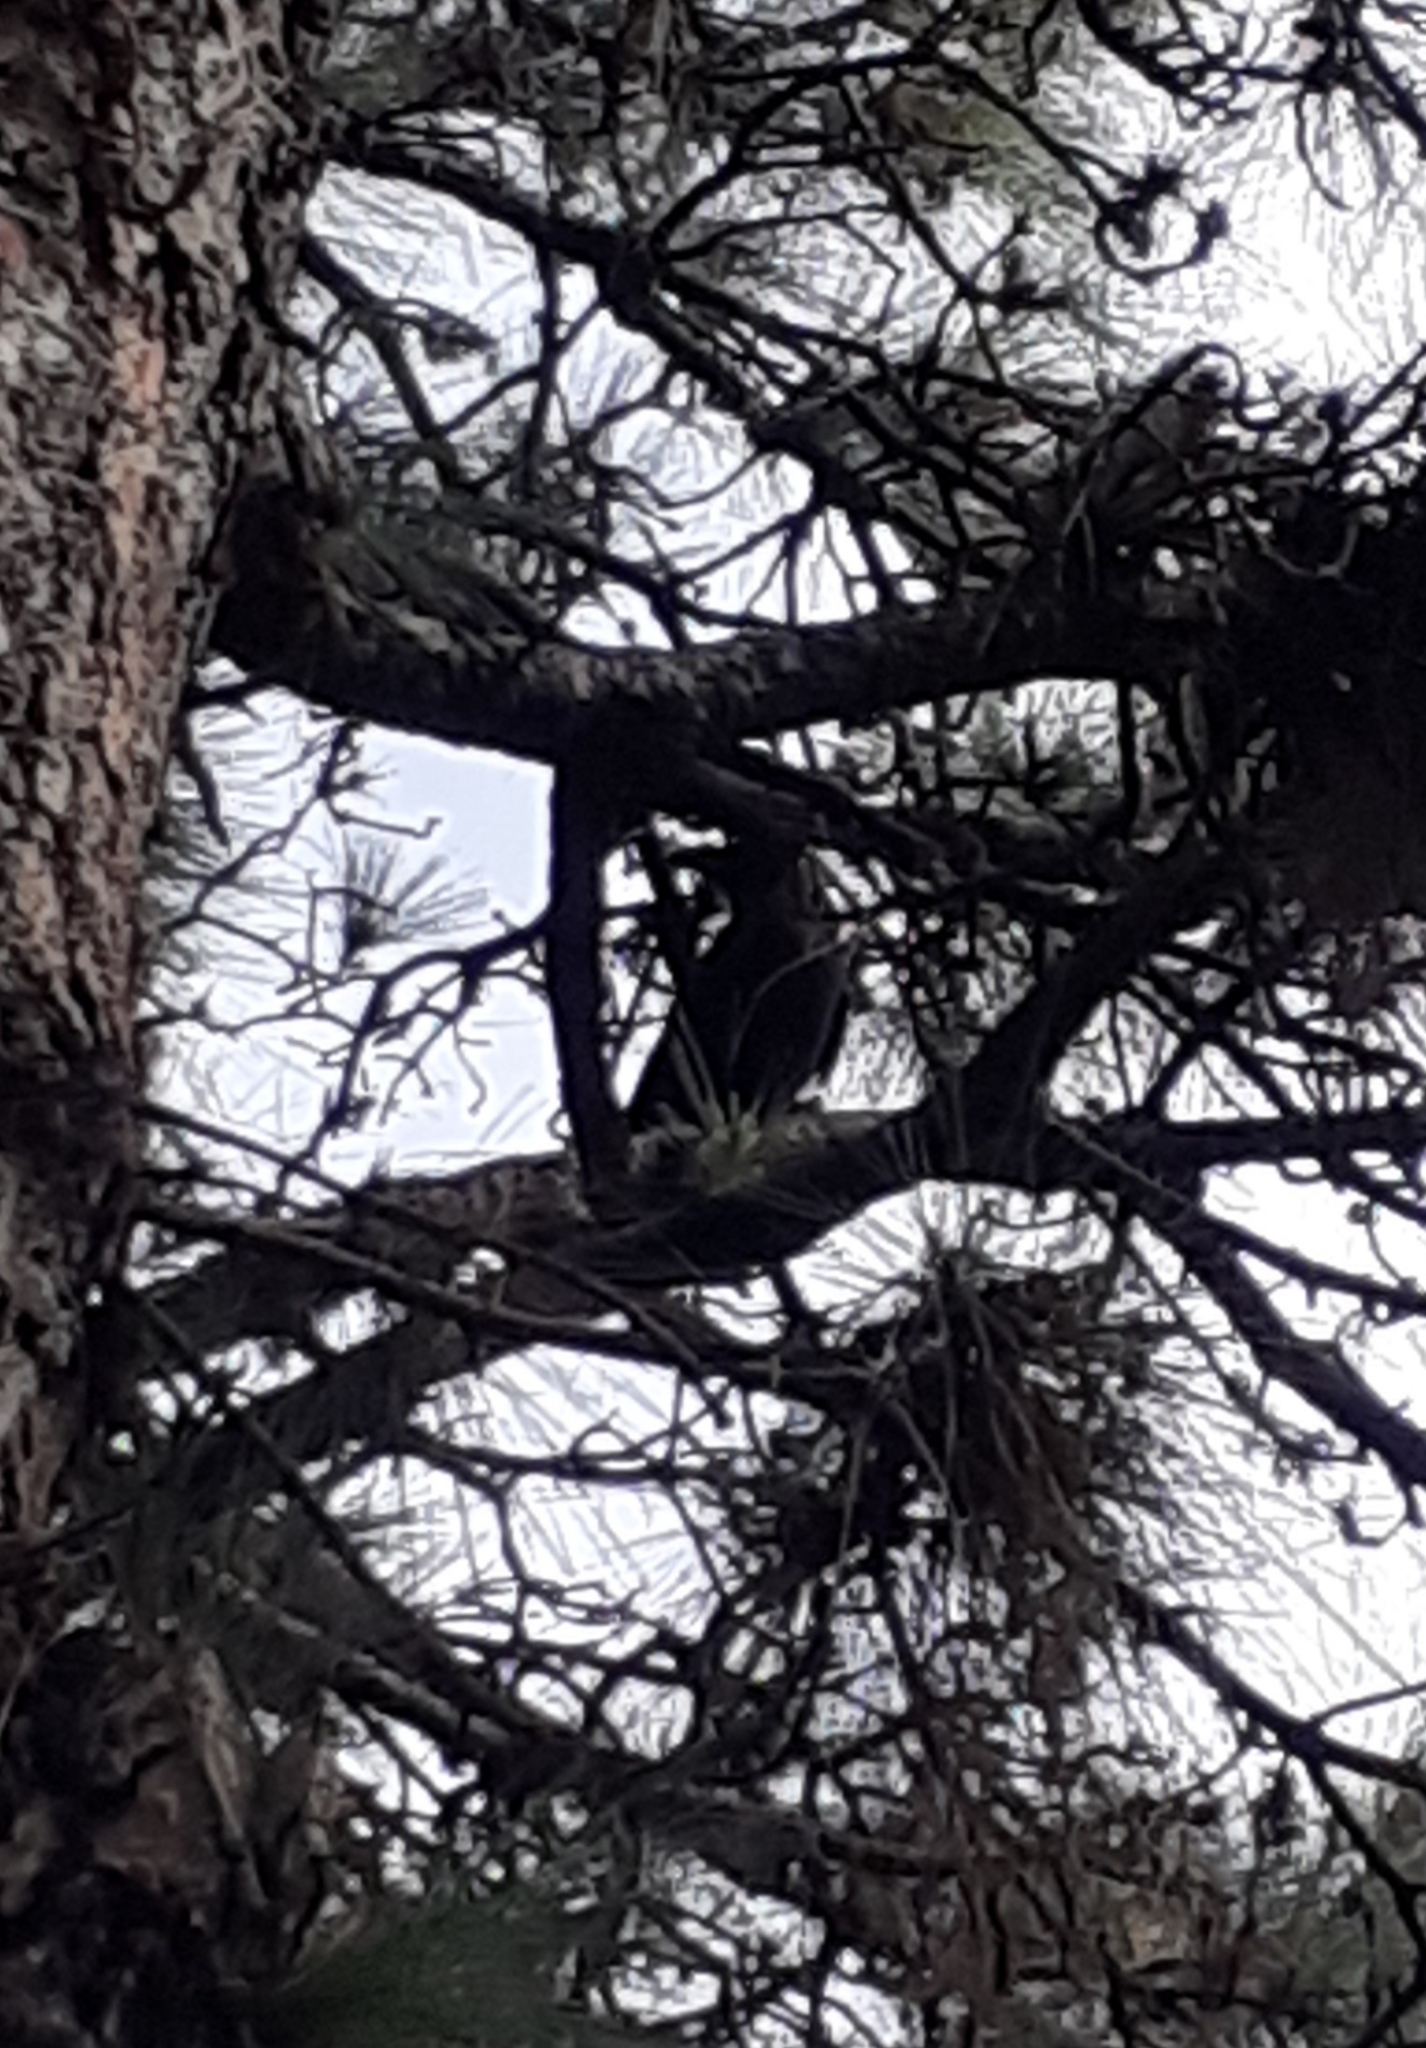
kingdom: Animalia
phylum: Chordata
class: Aves
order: Passeriformes
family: Corvidae
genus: Corvus
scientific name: Corvus corax
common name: Common raven
